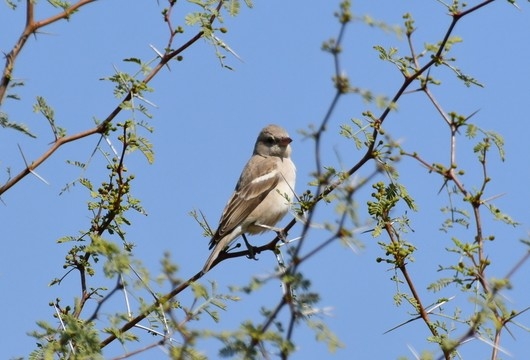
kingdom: Animalia
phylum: Chordata
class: Aves
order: Passeriformes
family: Passeridae
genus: Gymnoris
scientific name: Gymnoris xanthocollis
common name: Yellow-throated sparrow
